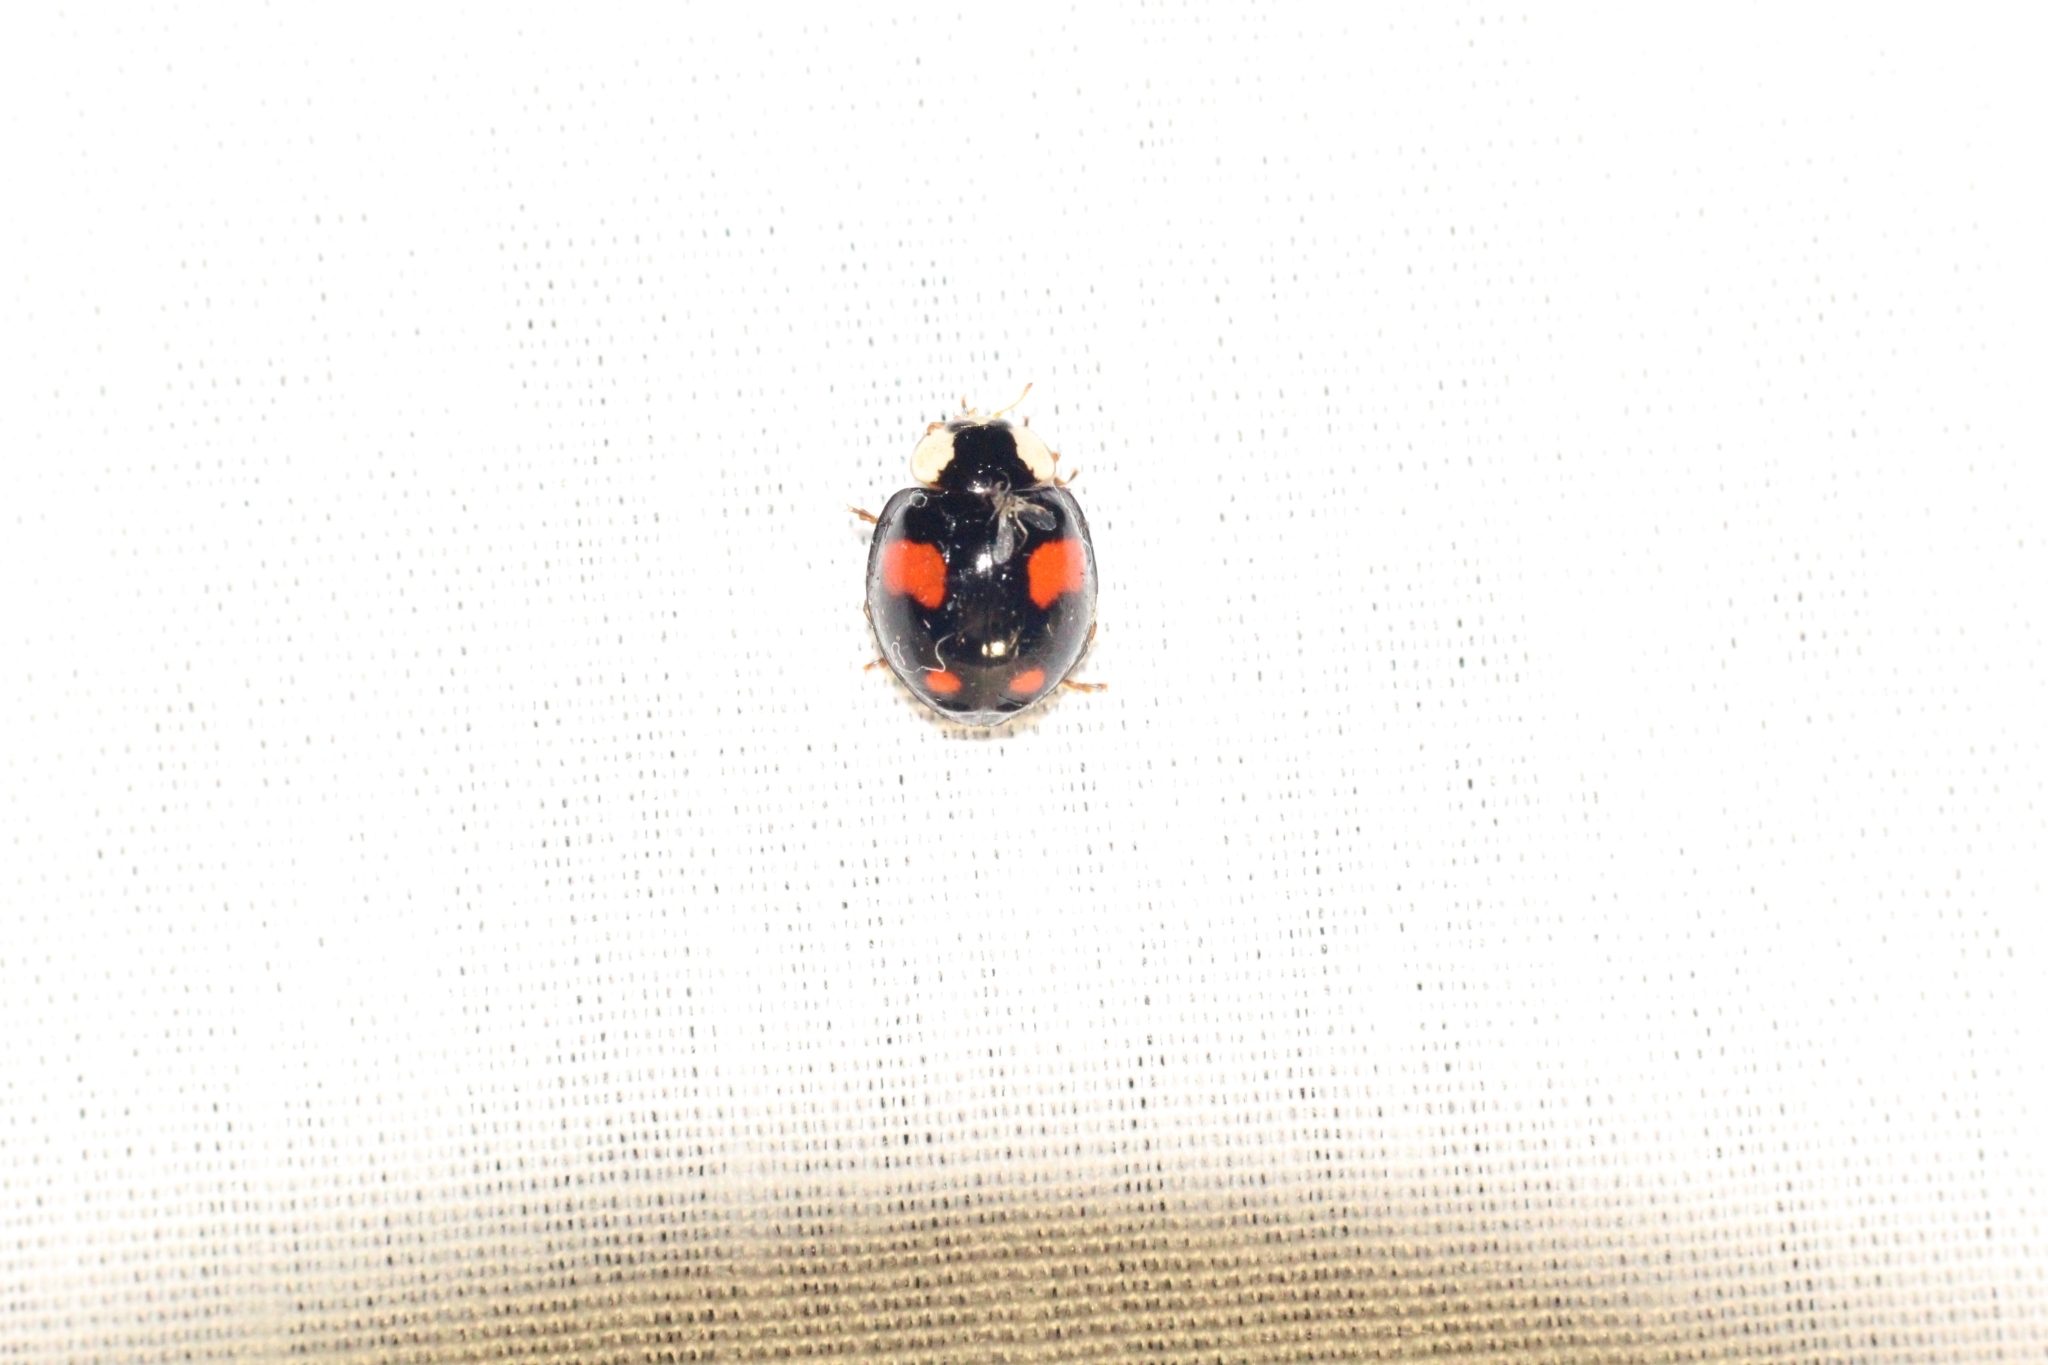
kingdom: Animalia
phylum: Arthropoda
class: Insecta
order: Coleoptera
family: Coccinellidae
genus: Harmonia
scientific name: Harmonia axyridis
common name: Harlequin ladybird
